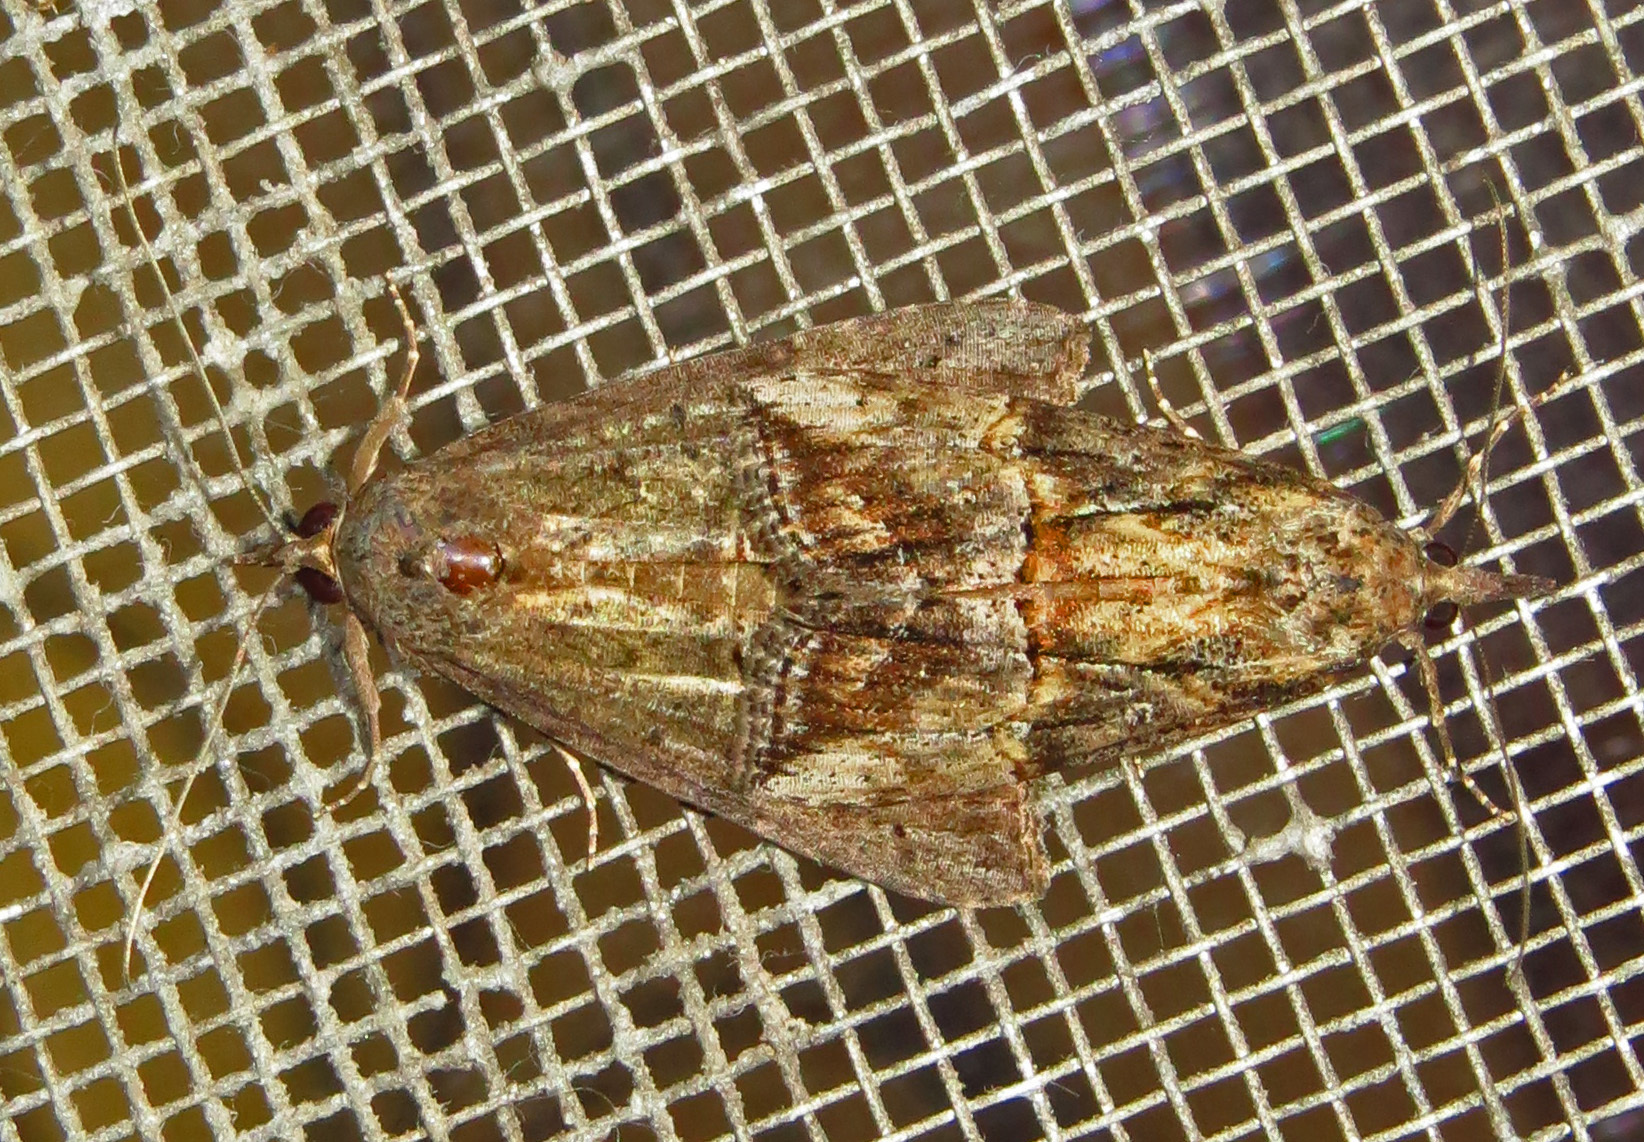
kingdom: Animalia
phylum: Arthropoda
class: Insecta
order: Lepidoptera
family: Erebidae
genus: Hypena
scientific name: Hypena scabra
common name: Green cloverworm
